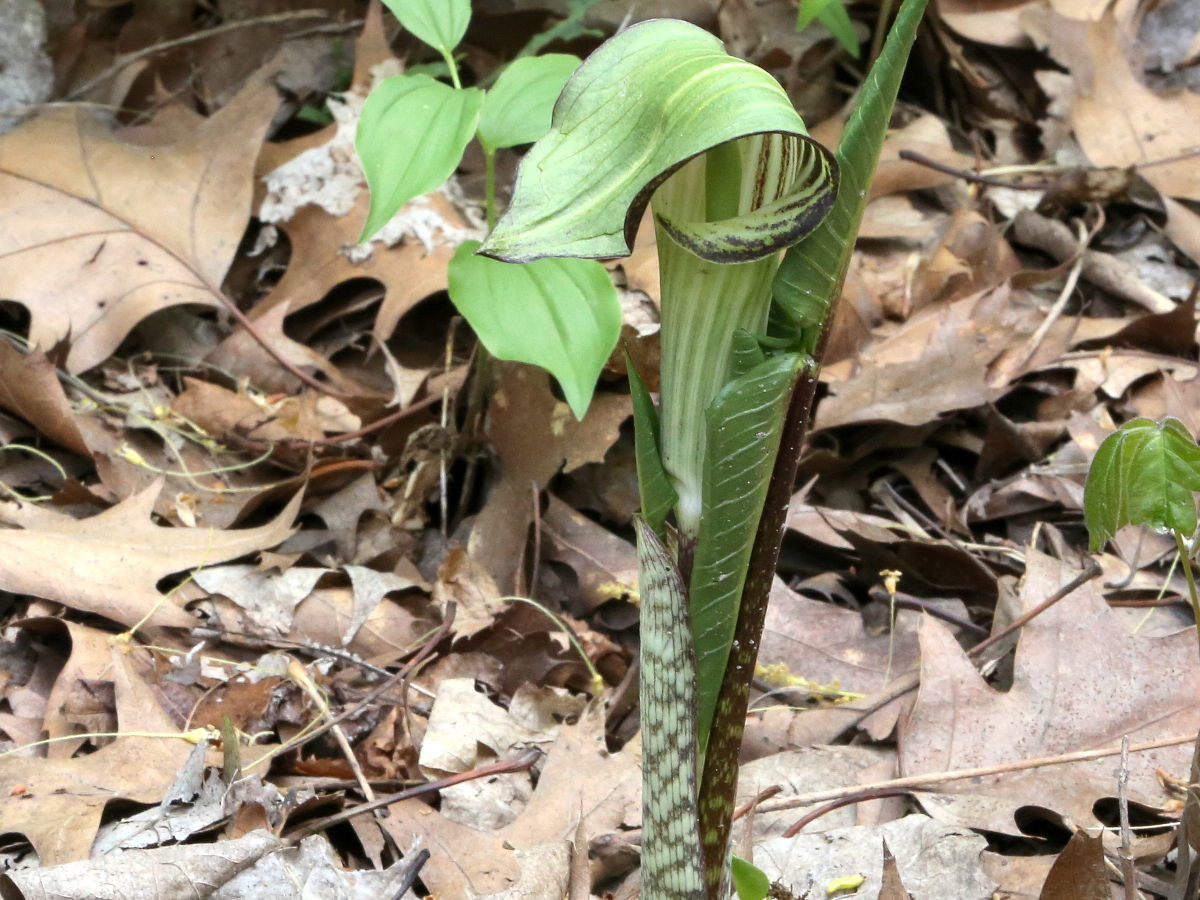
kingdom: Plantae
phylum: Tracheophyta
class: Liliopsida
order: Alismatales
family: Araceae
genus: Arisaema
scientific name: Arisaema triphyllum
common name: Jack-in-the-pulpit
